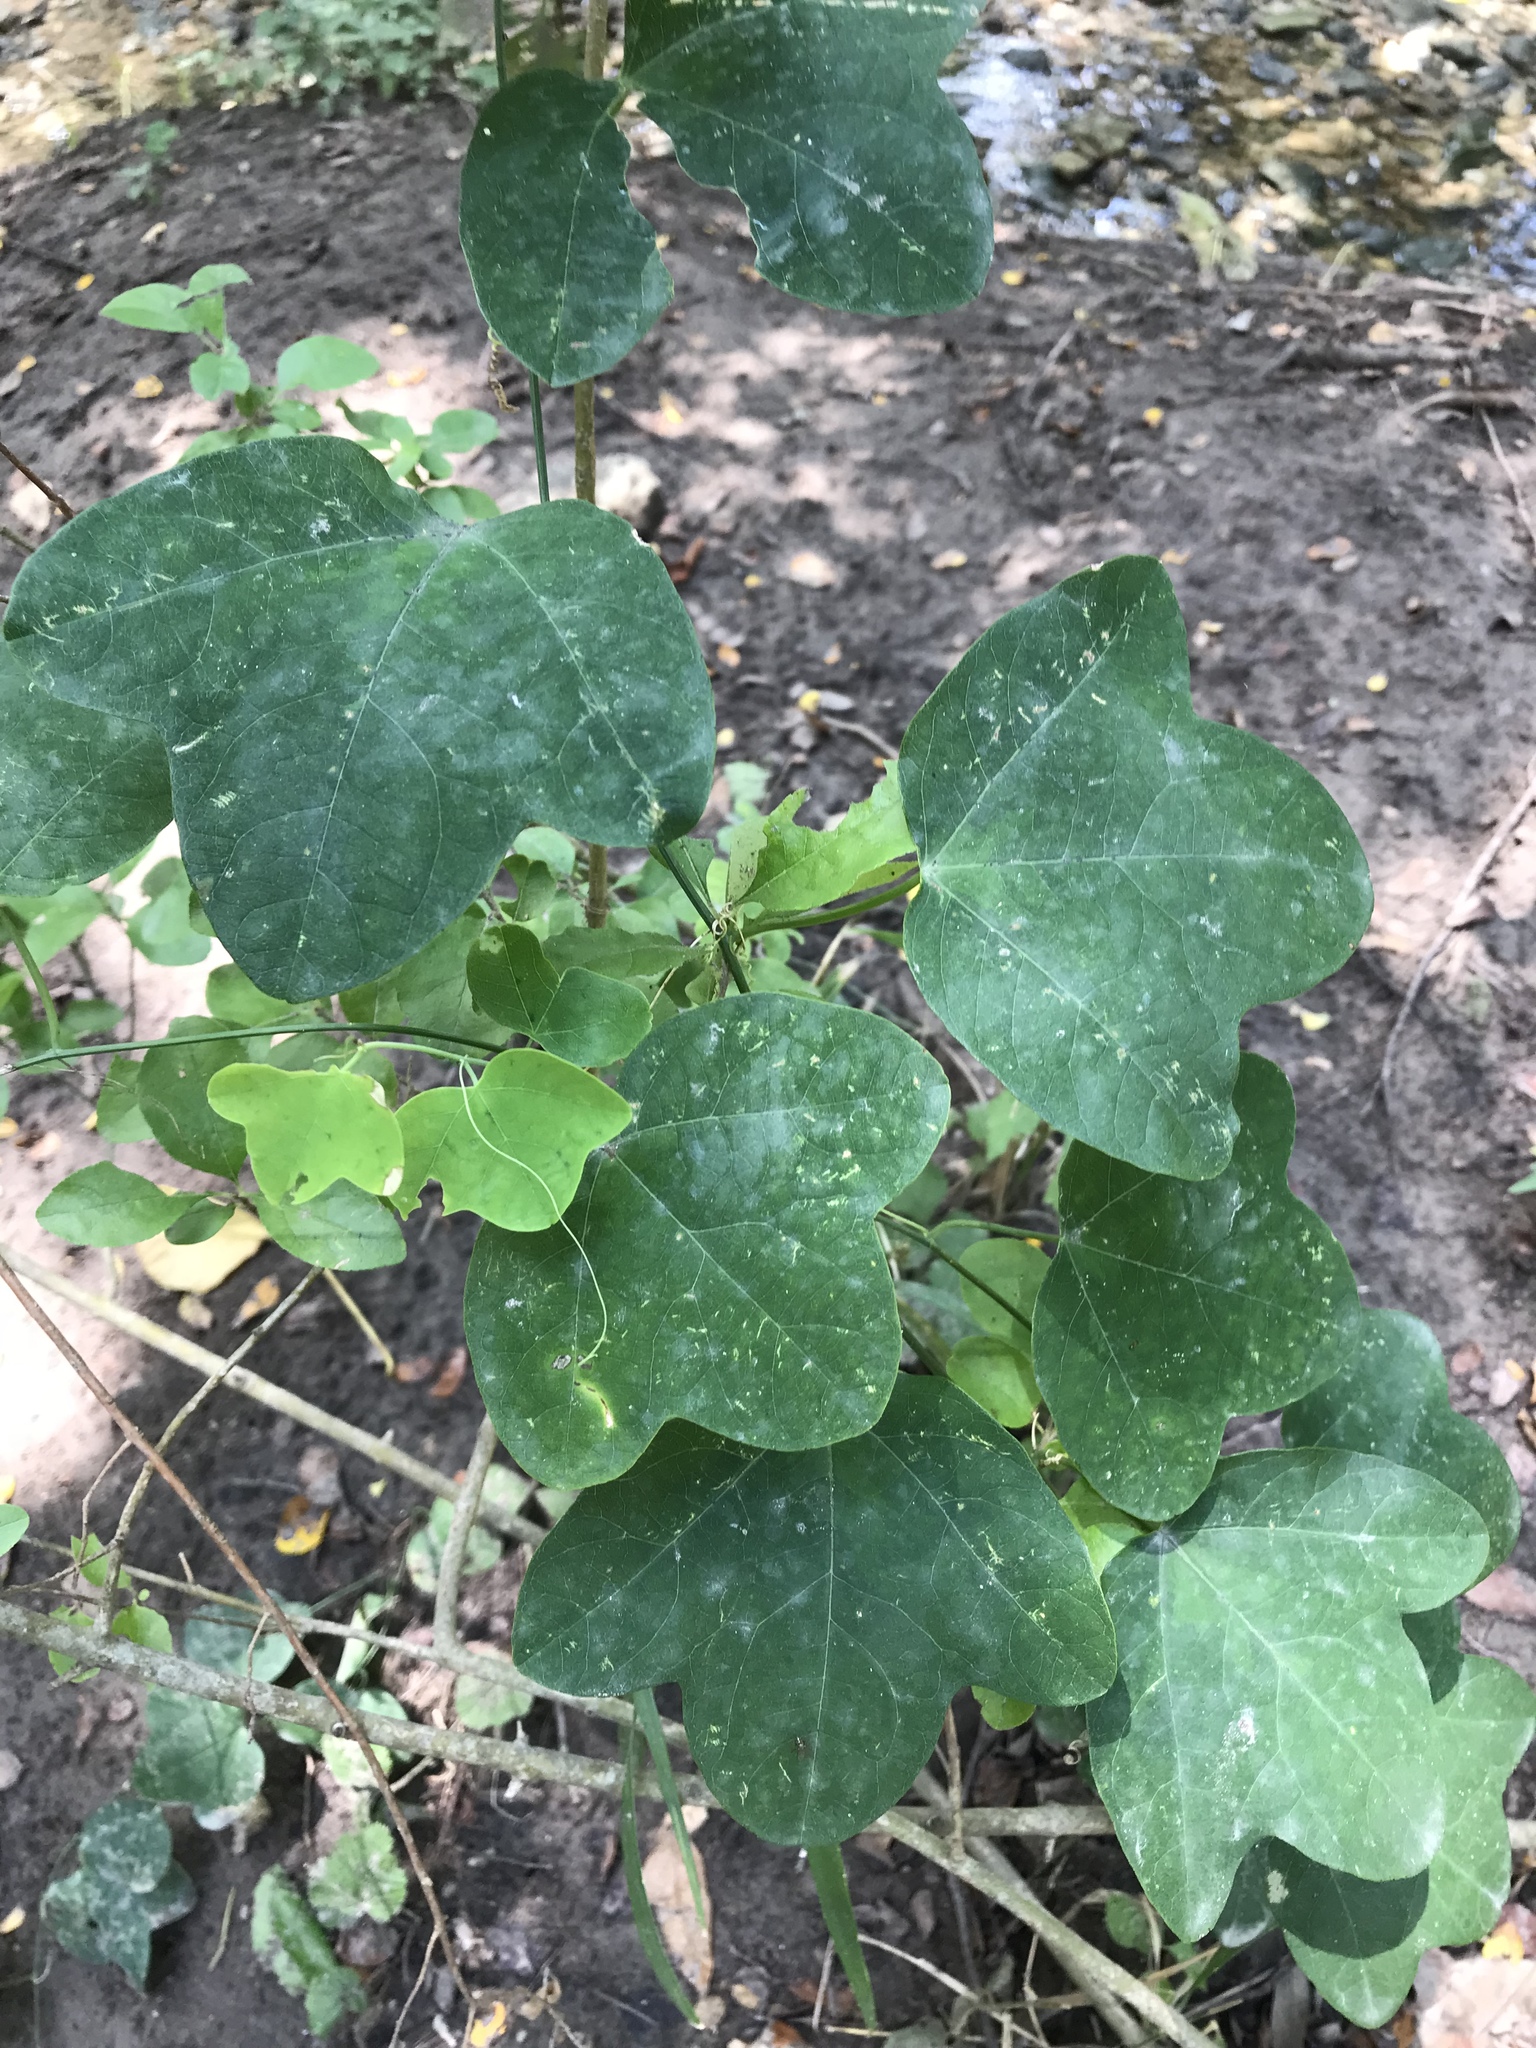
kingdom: Plantae
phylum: Tracheophyta
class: Magnoliopsida
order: Malpighiales
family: Passifloraceae
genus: Passiflora
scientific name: Passiflora lutea
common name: Yellow passionflower
